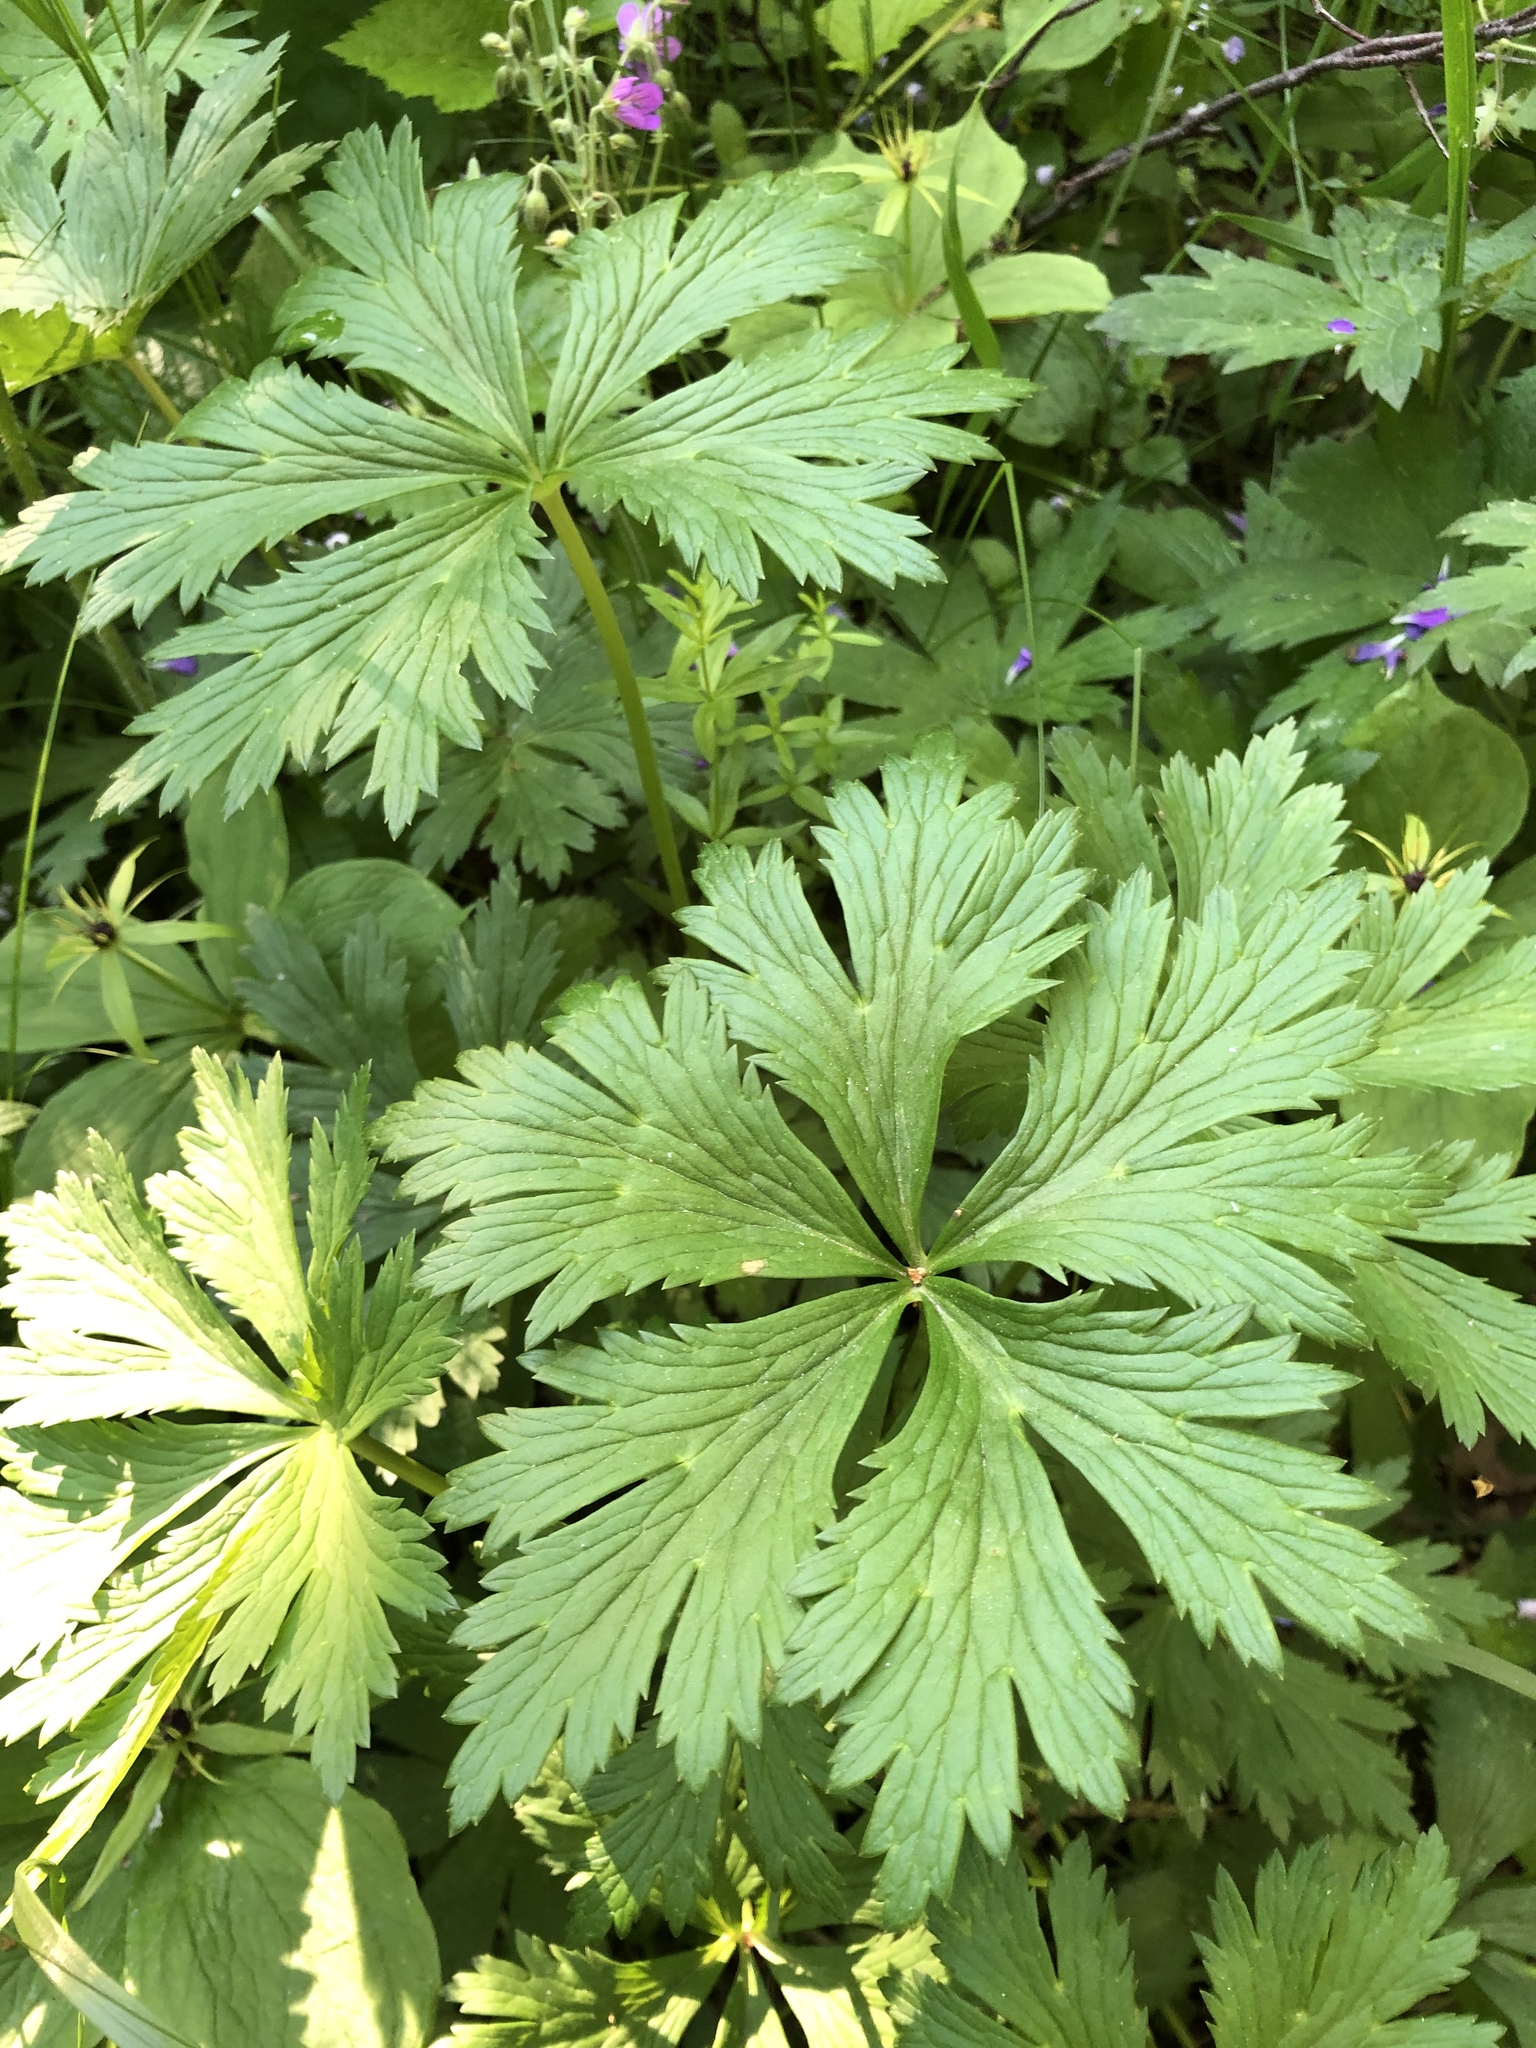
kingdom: Plantae
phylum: Tracheophyta
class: Magnoliopsida
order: Ranunculales
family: Ranunculaceae
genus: Trollius
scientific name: Trollius europaeus
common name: European globeflower
